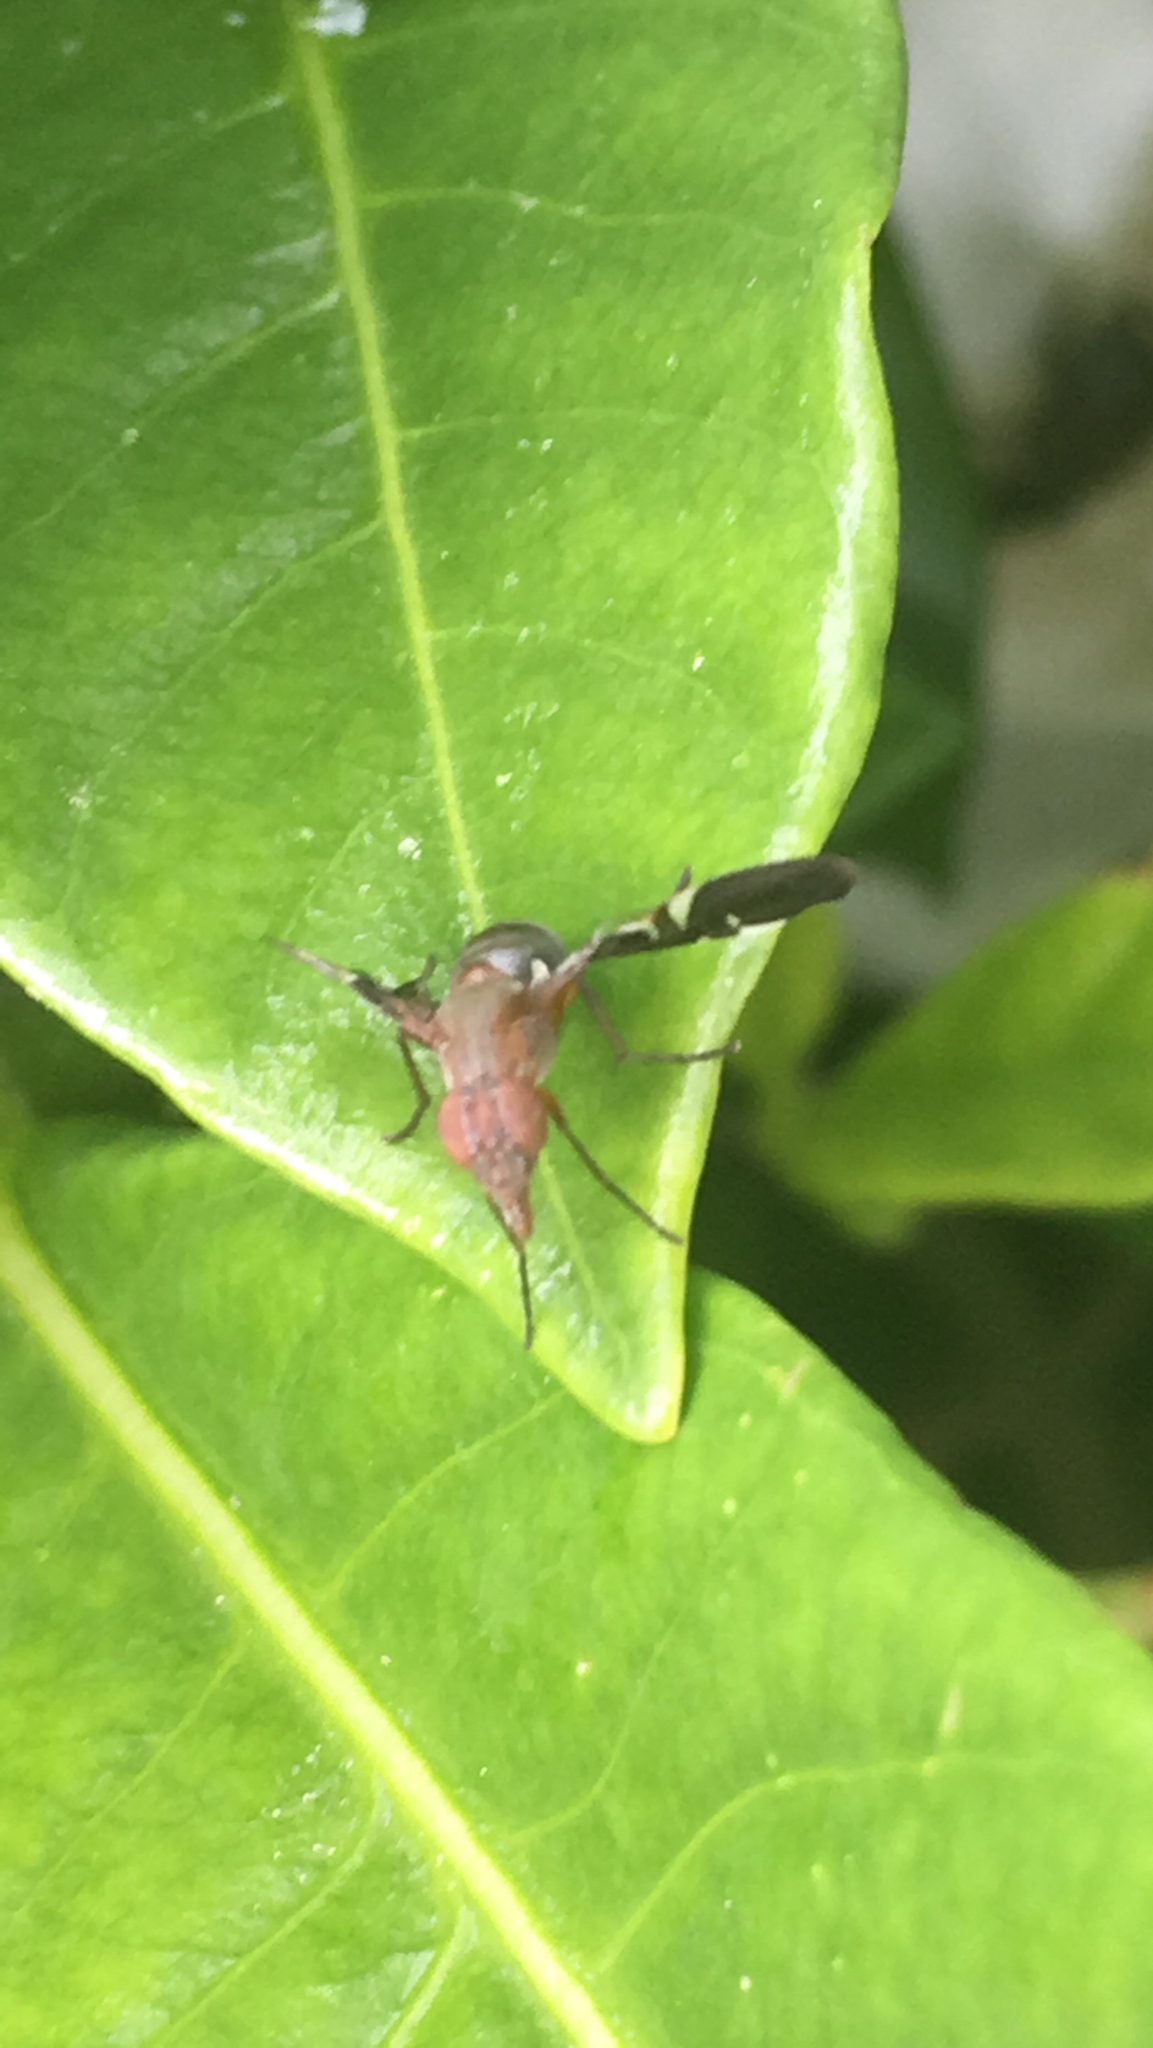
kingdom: Animalia
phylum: Arthropoda
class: Insecta
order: Diptera
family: Ulidiidae
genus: Delphinia
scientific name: Delphinia picta
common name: Common picture-winged fly
